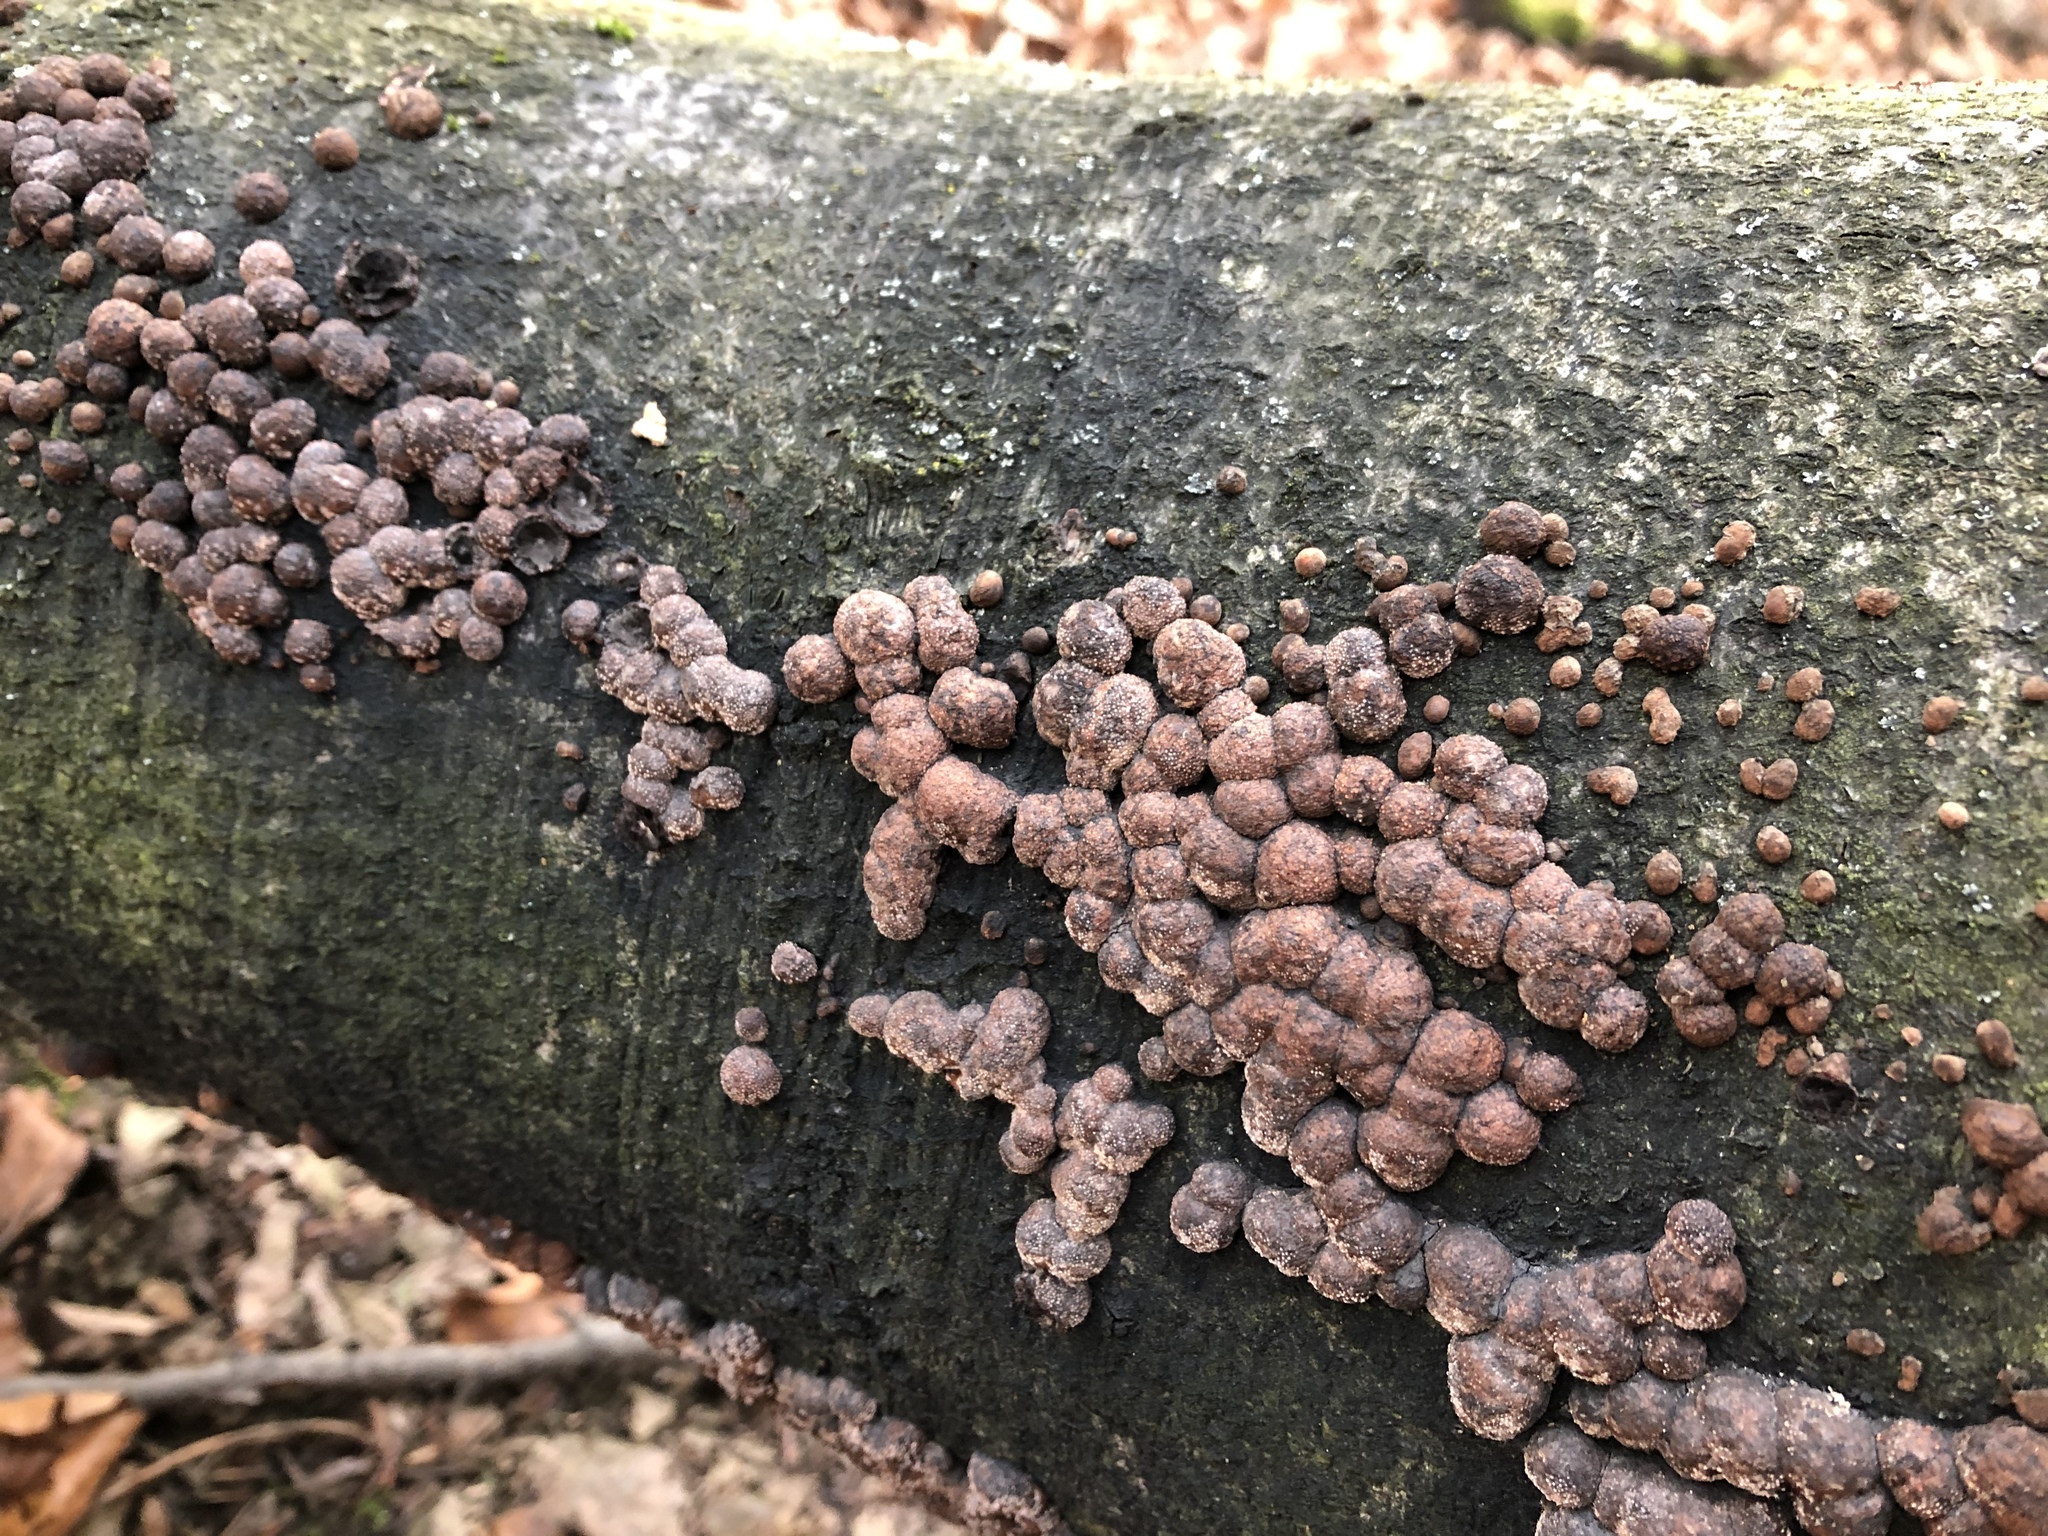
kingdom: Fungi
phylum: Ascomycota
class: Sordariomycetes
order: Xylariales
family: Hypoxylaceae
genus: Hypoxylon
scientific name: Hypoxylon fragiforme
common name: Beech woodwart
